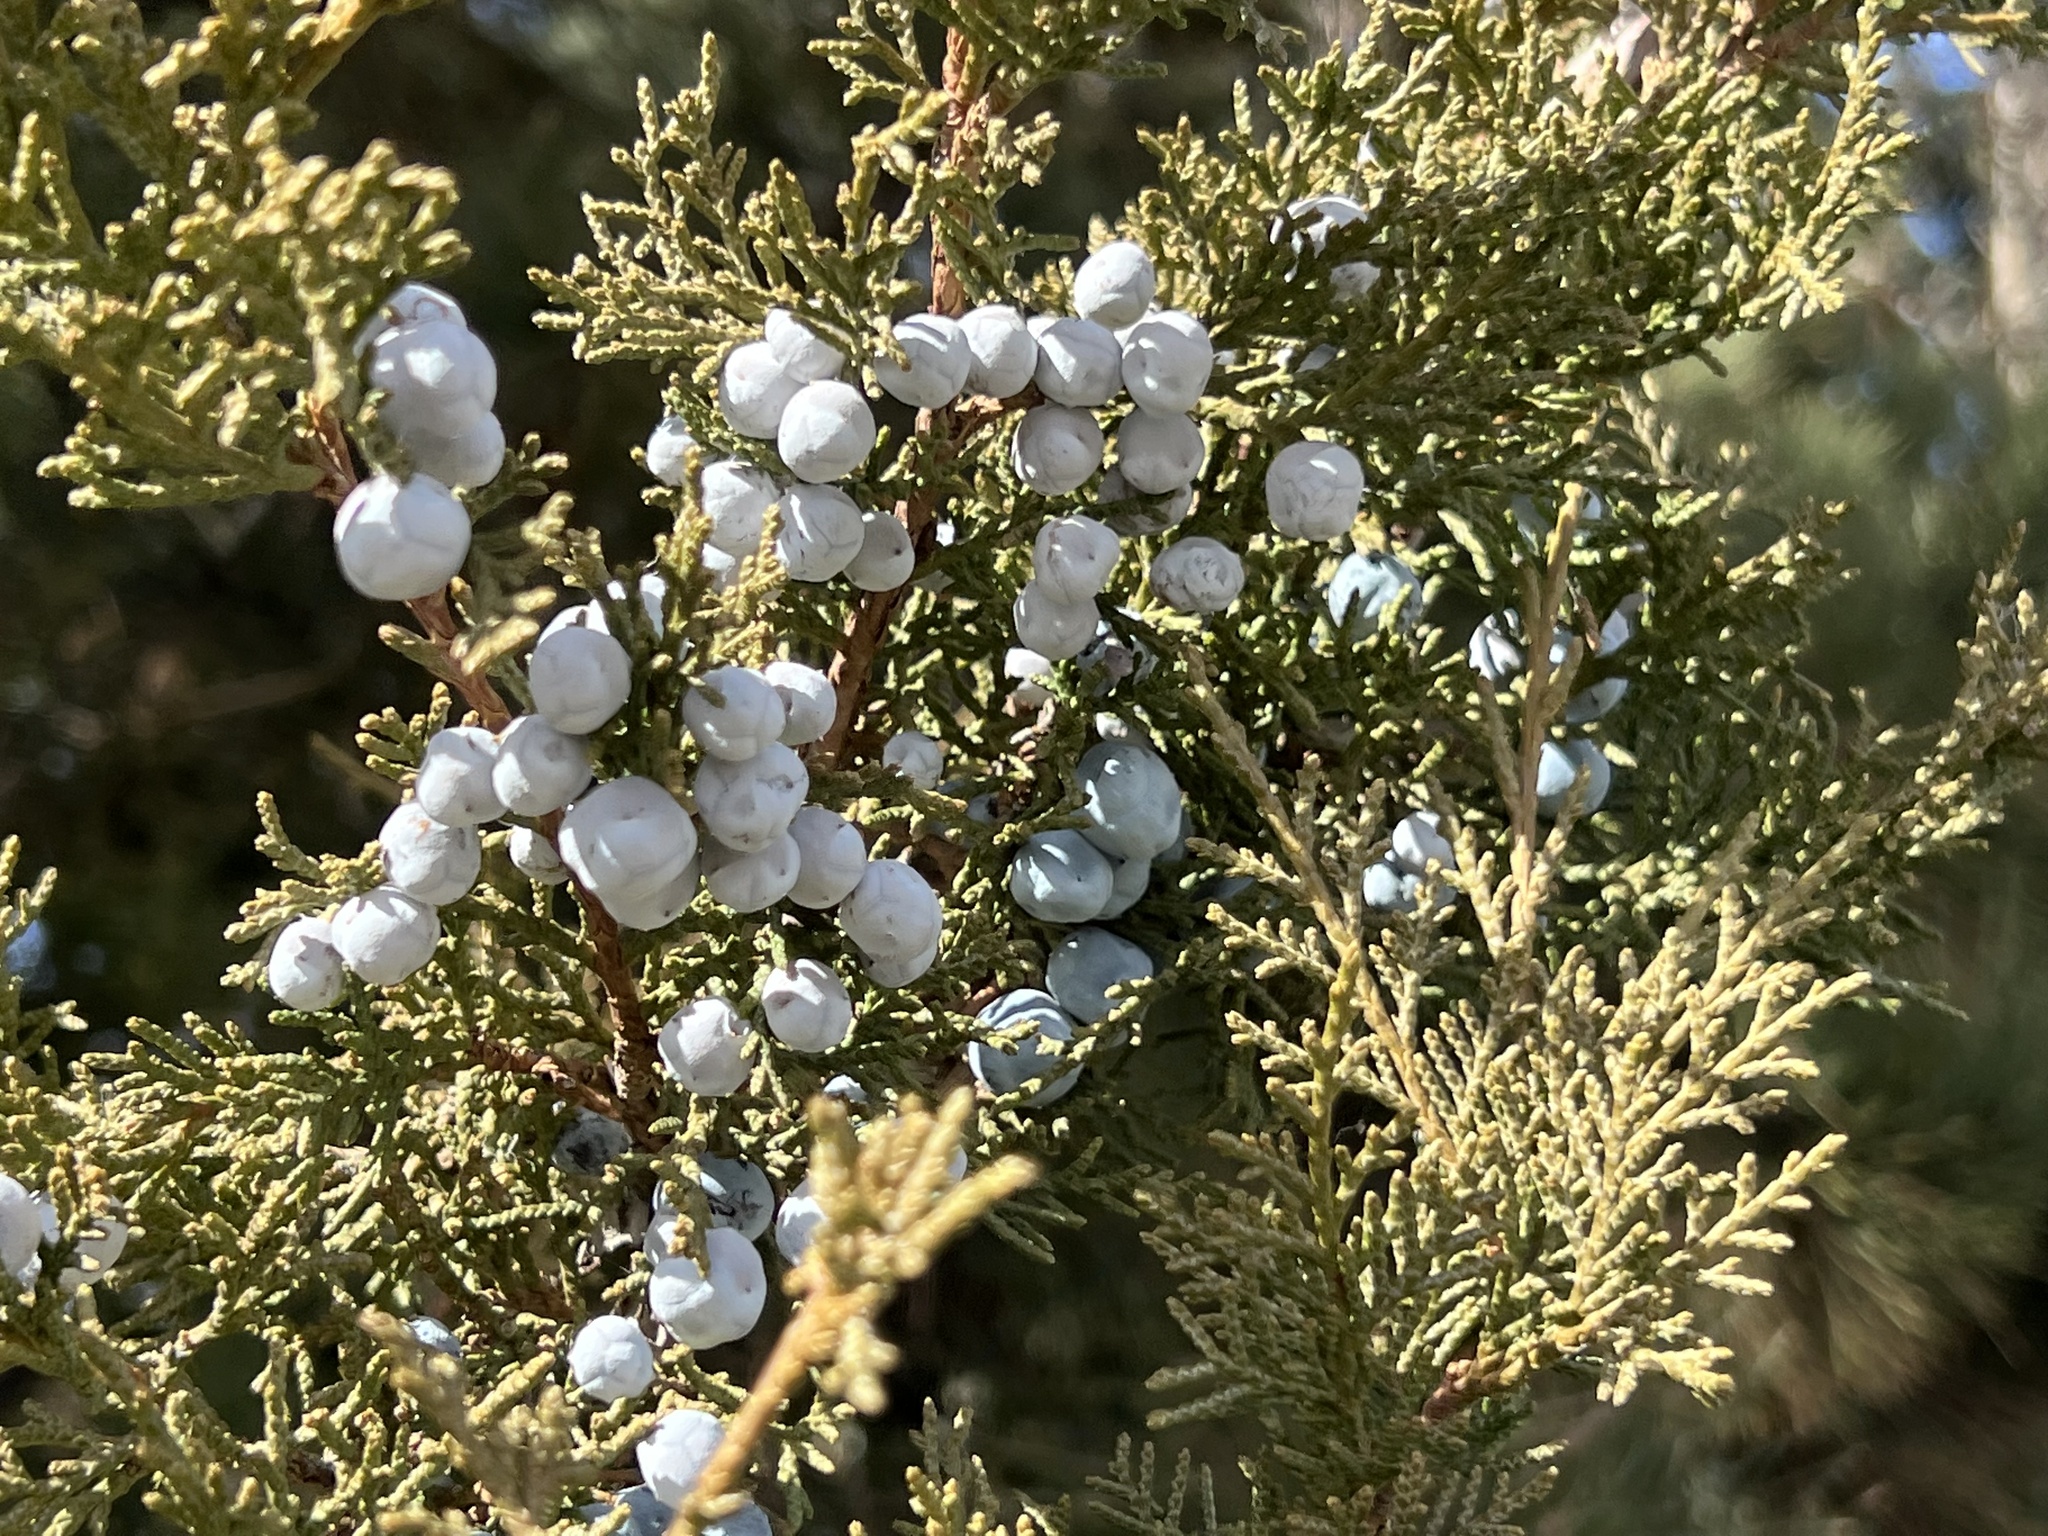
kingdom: Plantae
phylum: Tracheophyta
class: Pinopsida
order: Pinales
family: Cupressaceae
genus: Juniperus
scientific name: Juniperus scopulorum
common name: Rocky mountain juniper
